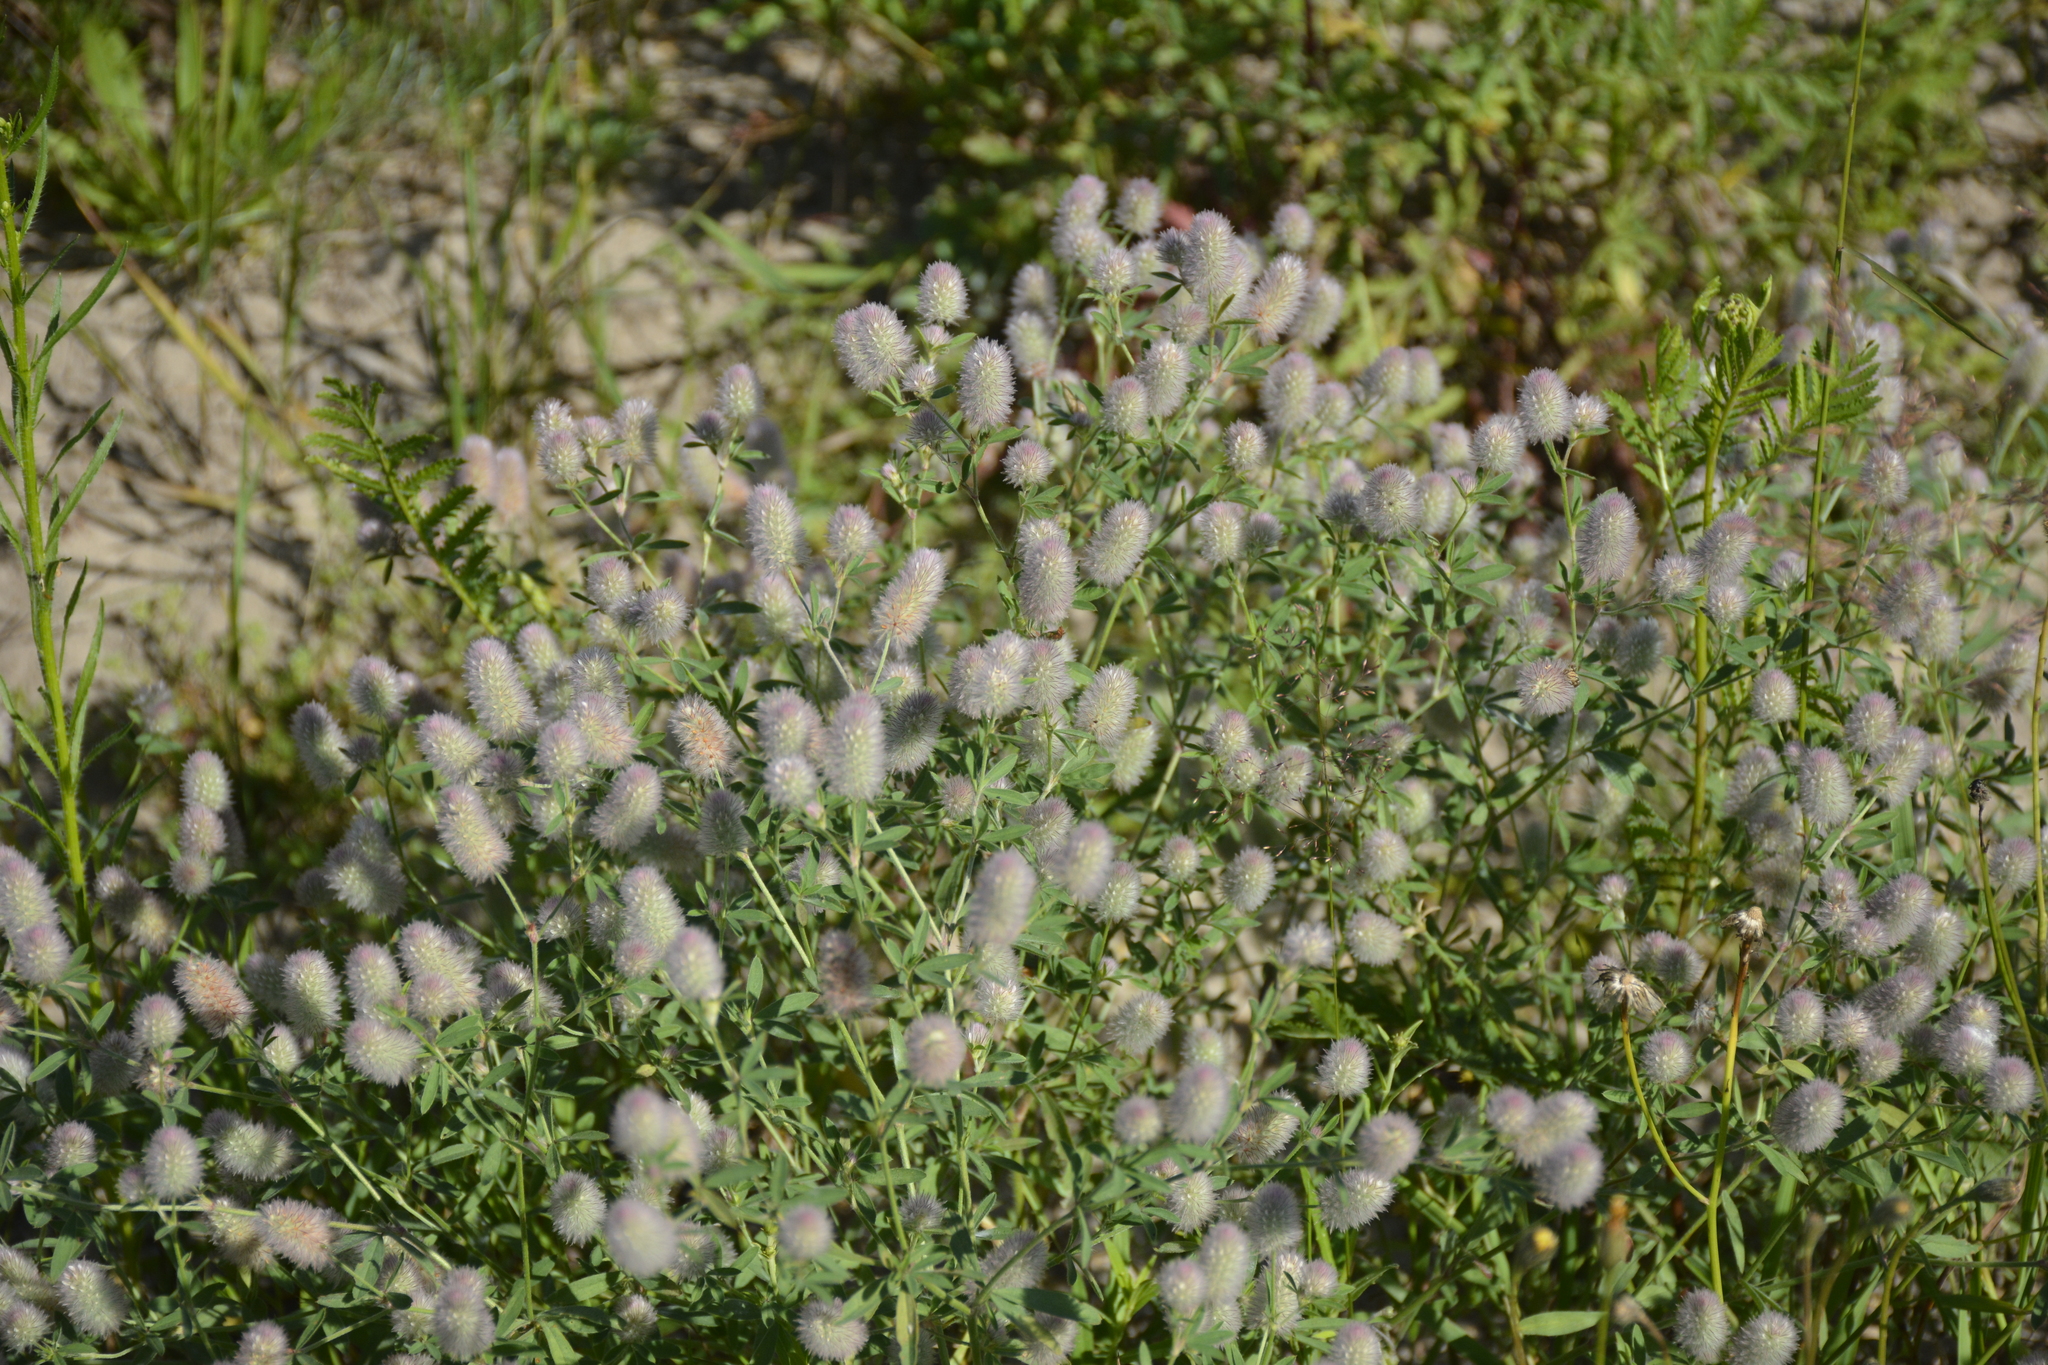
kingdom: Plantae
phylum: Tracheophyta
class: Magnoliopsida
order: Fabales
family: Fabaceae
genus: Trifolium
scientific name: Trifolium arvense
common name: Hare's-foot clover
